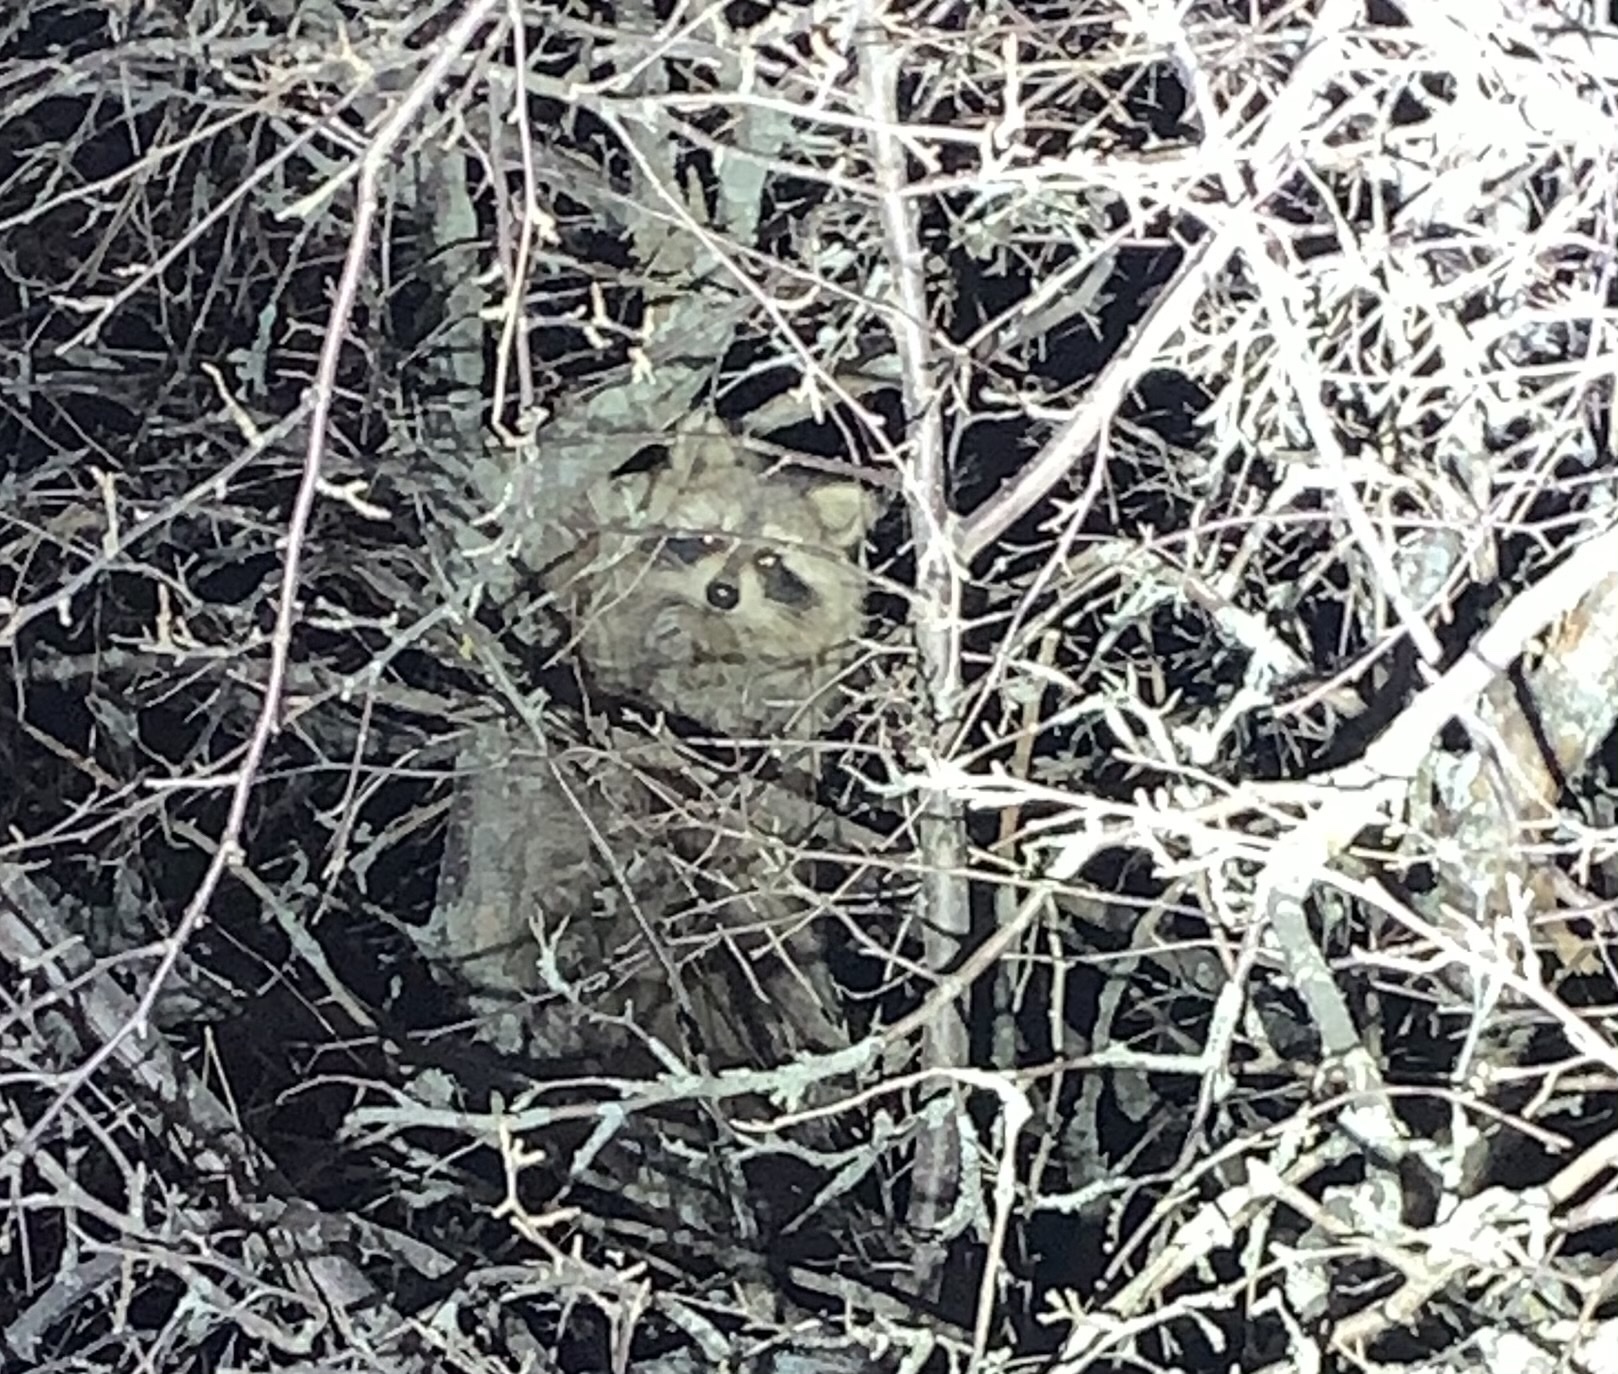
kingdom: Animalia
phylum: Chordata
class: Mammalia
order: Carnivora
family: Procyonidae
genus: Procyon
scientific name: Procyon lotor
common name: Raccoon
